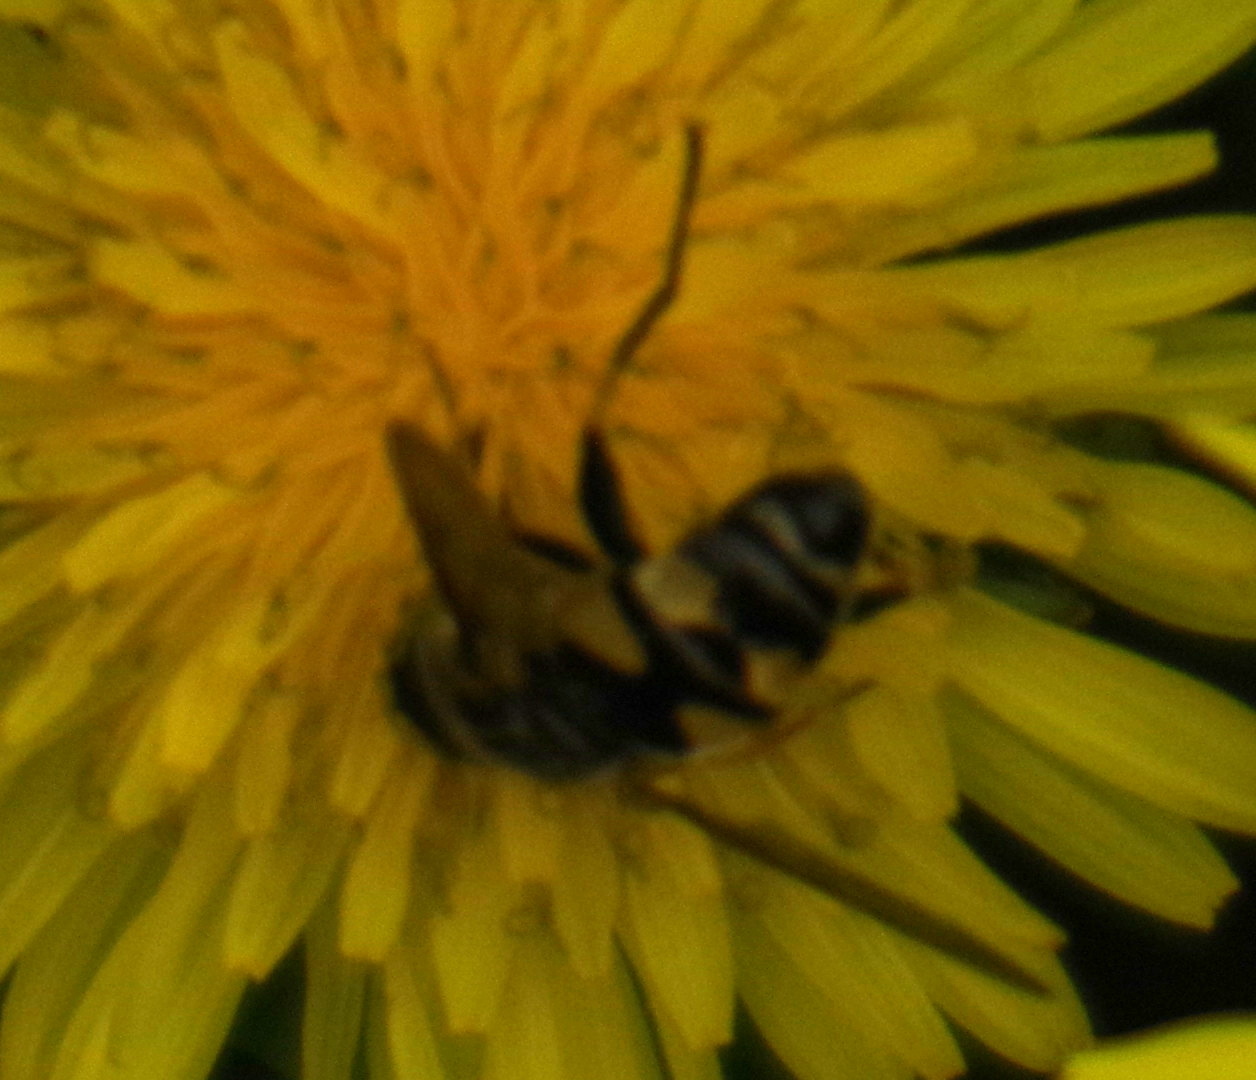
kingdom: Animalia
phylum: Arthropoda
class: Insecta
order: Diptera
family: Syrphidae
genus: Helophilus
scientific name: Helophilus fasciatus
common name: Narrow-headed marsh fly
